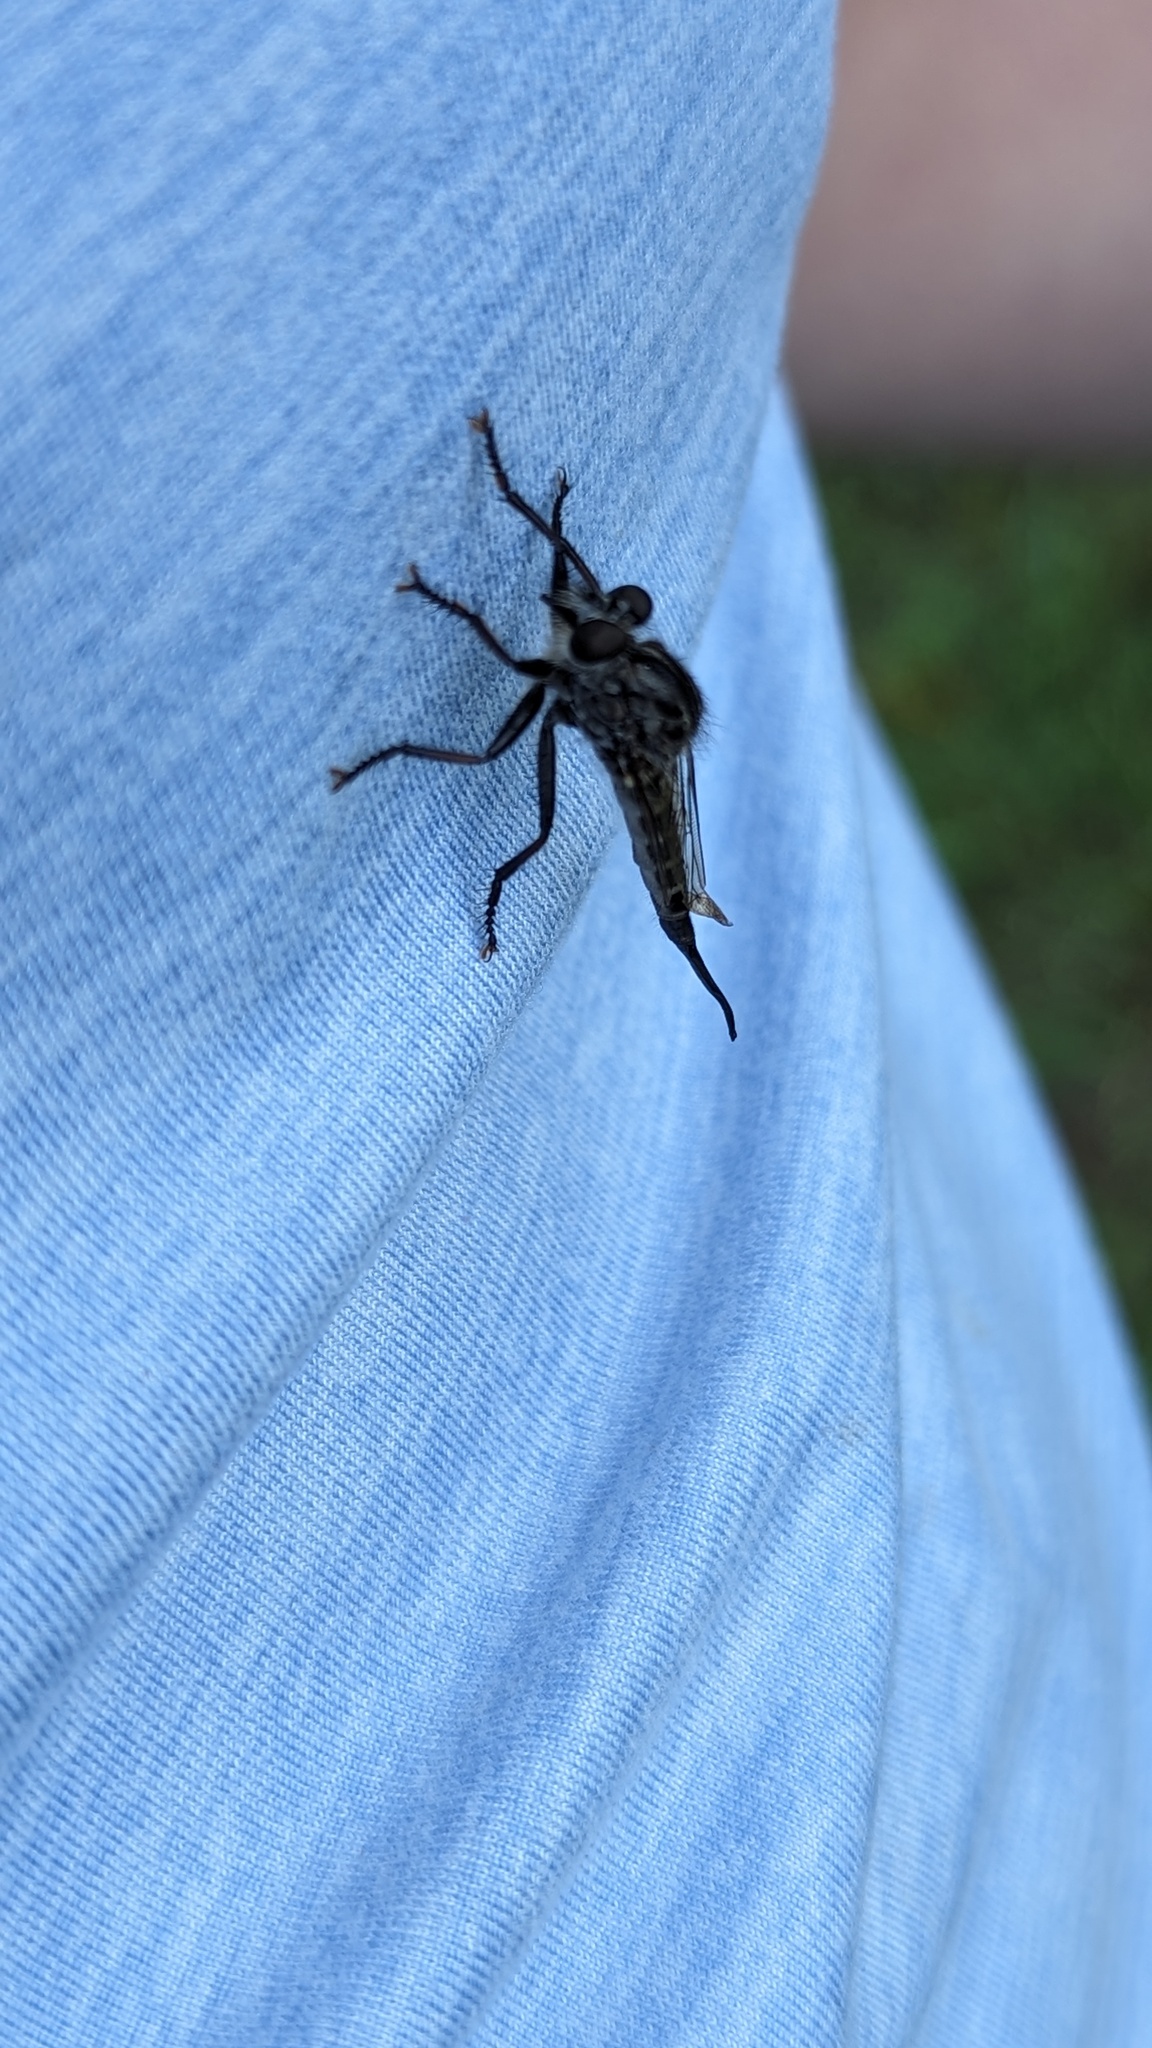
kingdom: Animalia
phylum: Arthropoda
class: Insecta
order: Diptera
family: Asilidae
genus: Efferia
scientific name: Efferia aestuans
